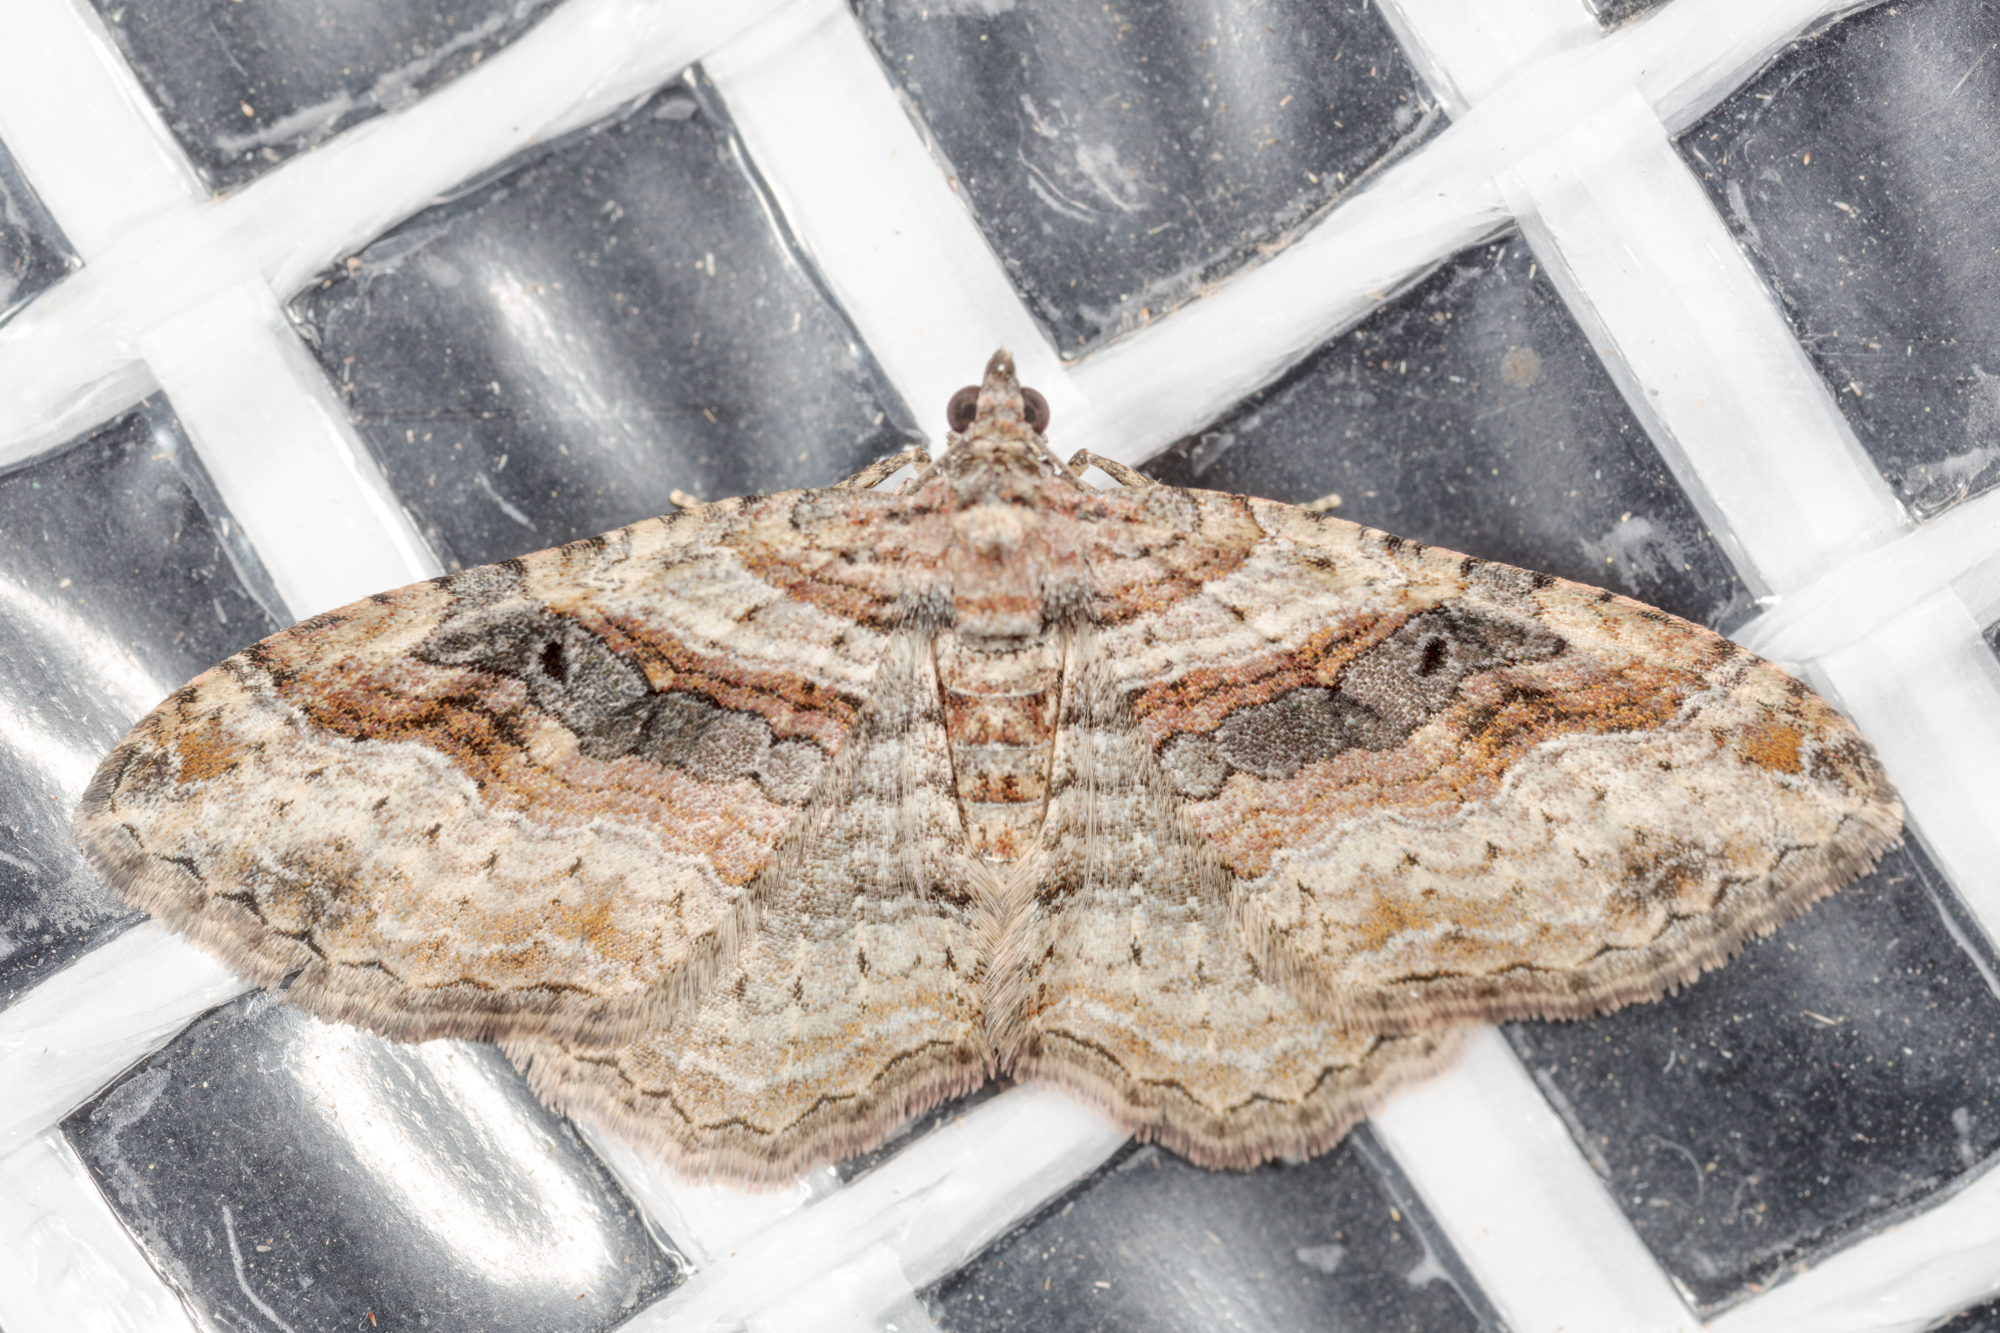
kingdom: Animalia
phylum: Arthropoda
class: Insecta
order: Lepidoptera
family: Geometridae
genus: Costaconvexa
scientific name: Costaconvexa centrostrigaria
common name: Bent-line carpet
